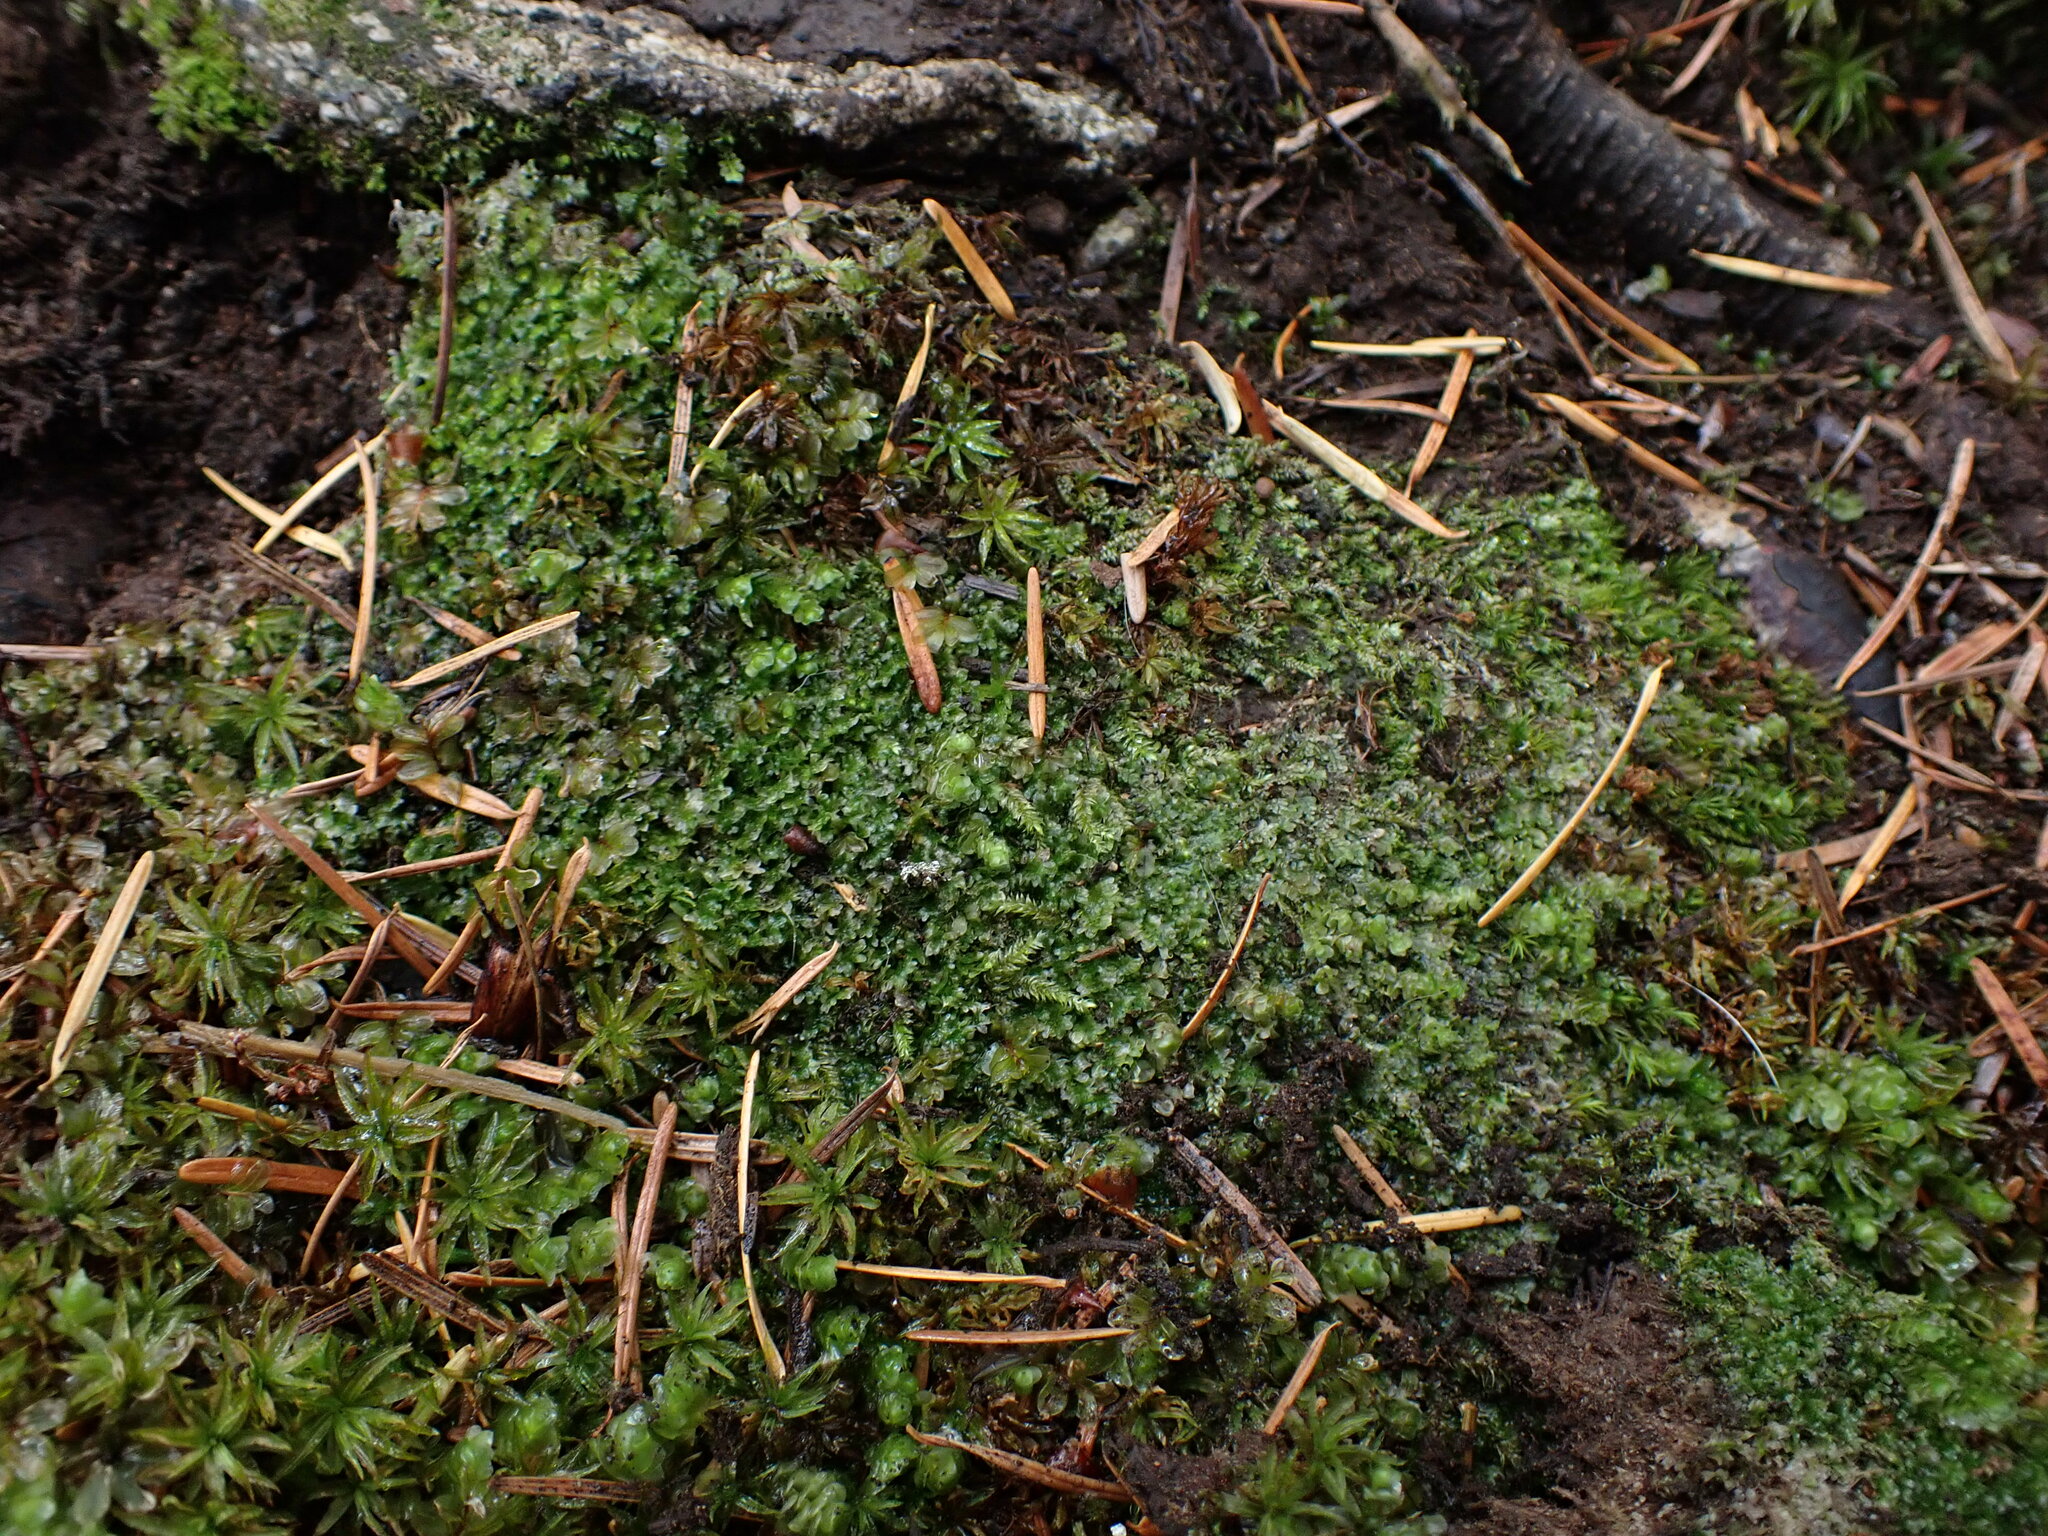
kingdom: Plantae
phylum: Marchantiophyta
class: Jungermanniopsida
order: Jungermanniales
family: Scapaniaceae
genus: Diplophyllum
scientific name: Diplophyllum albicans
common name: White earwort
